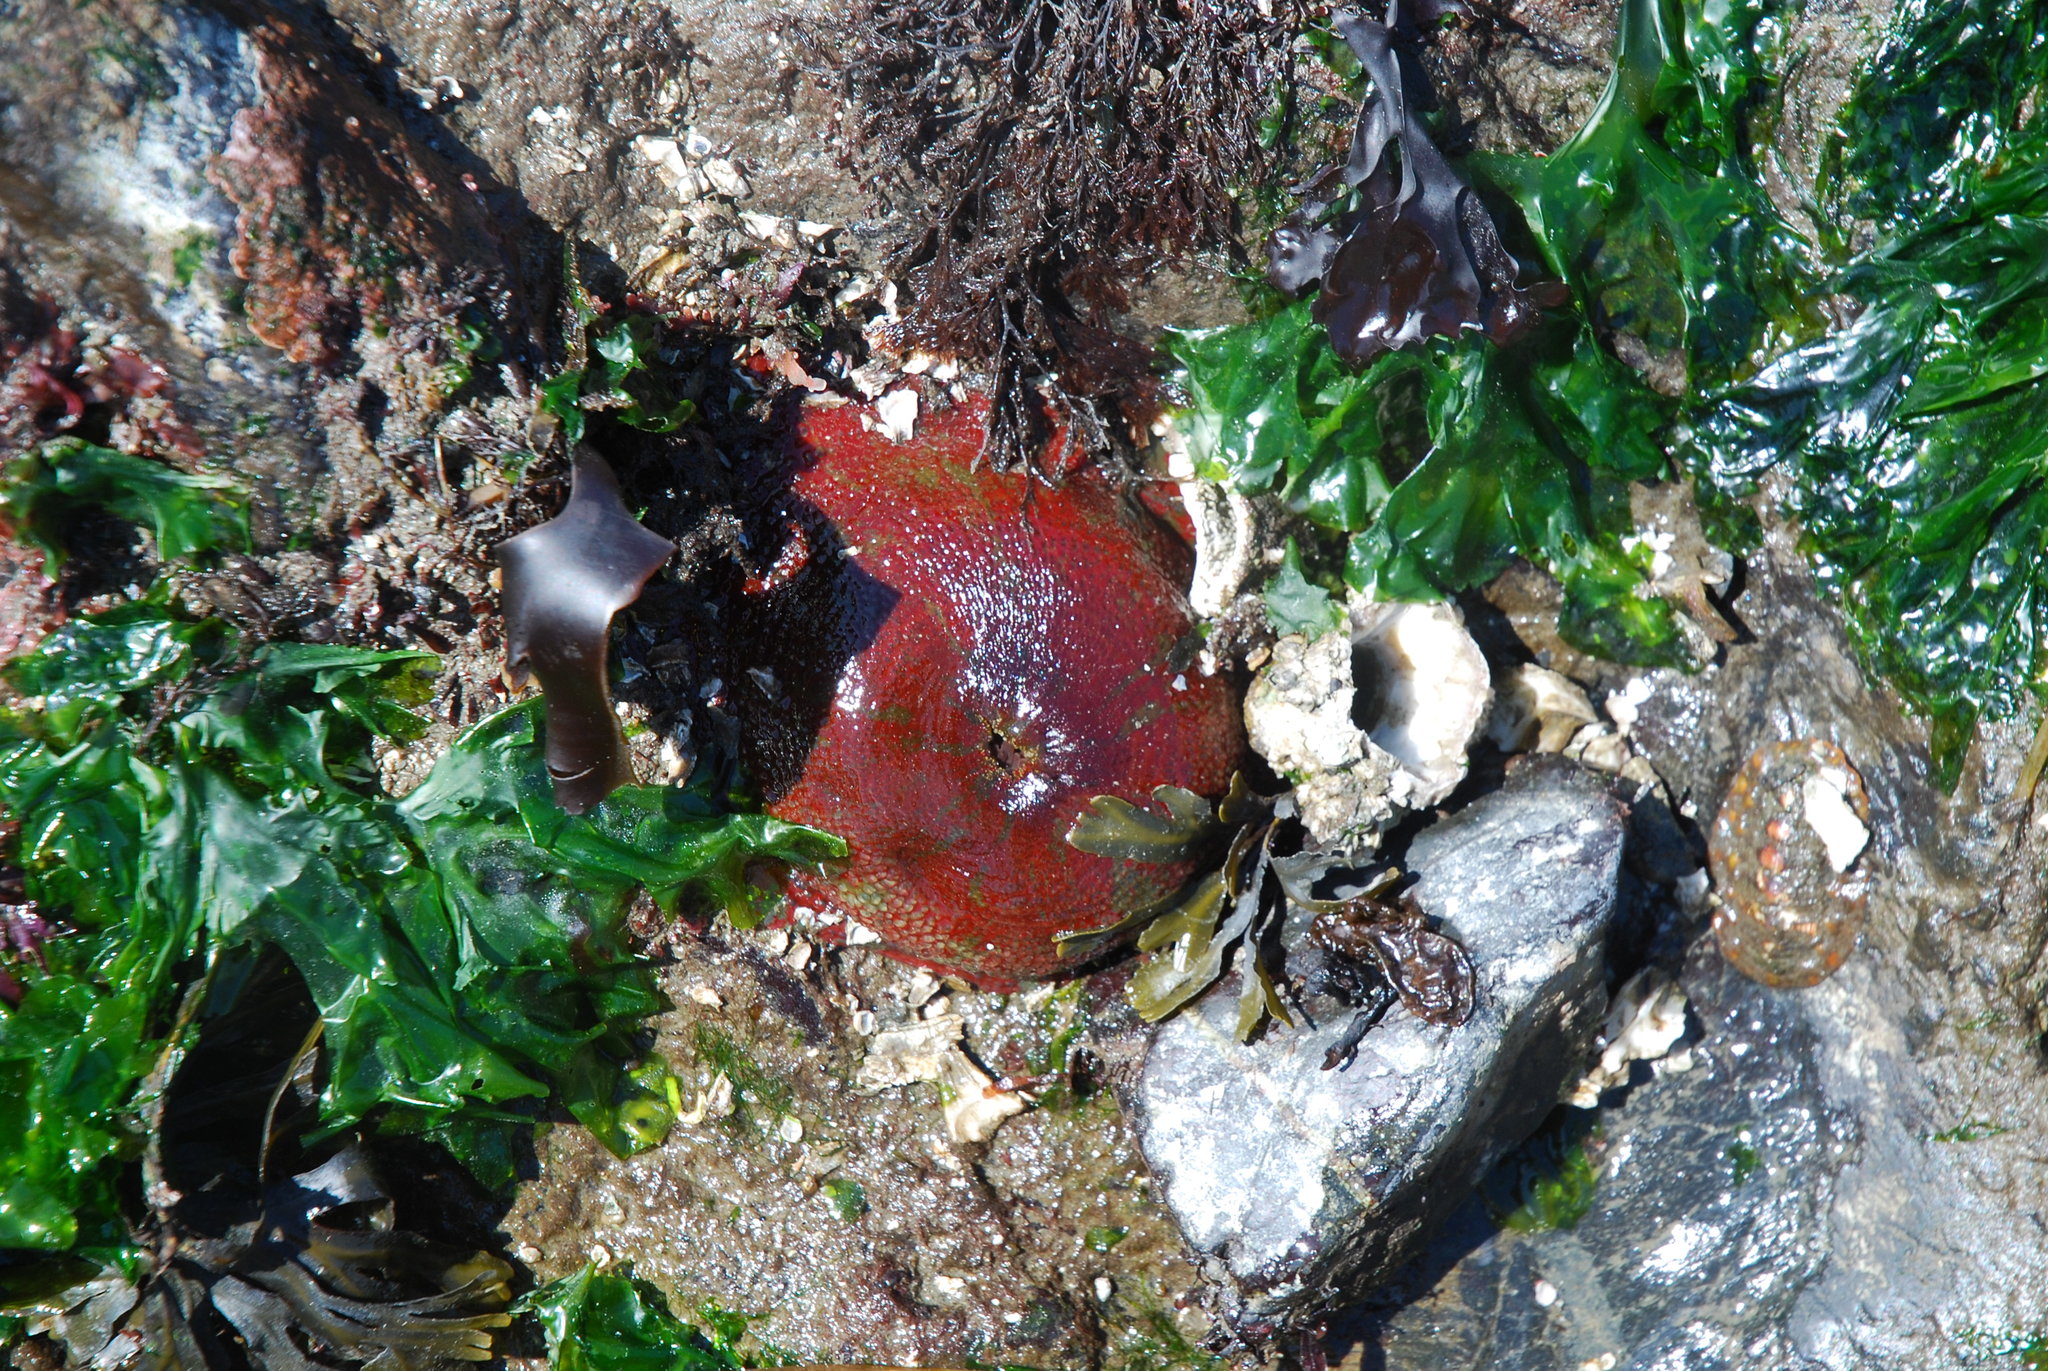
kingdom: Animalia
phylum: Cnidaria
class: Anthozoa
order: Actiniaria
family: Actiniidae
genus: Urticina
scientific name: Urticina grebelnyi
